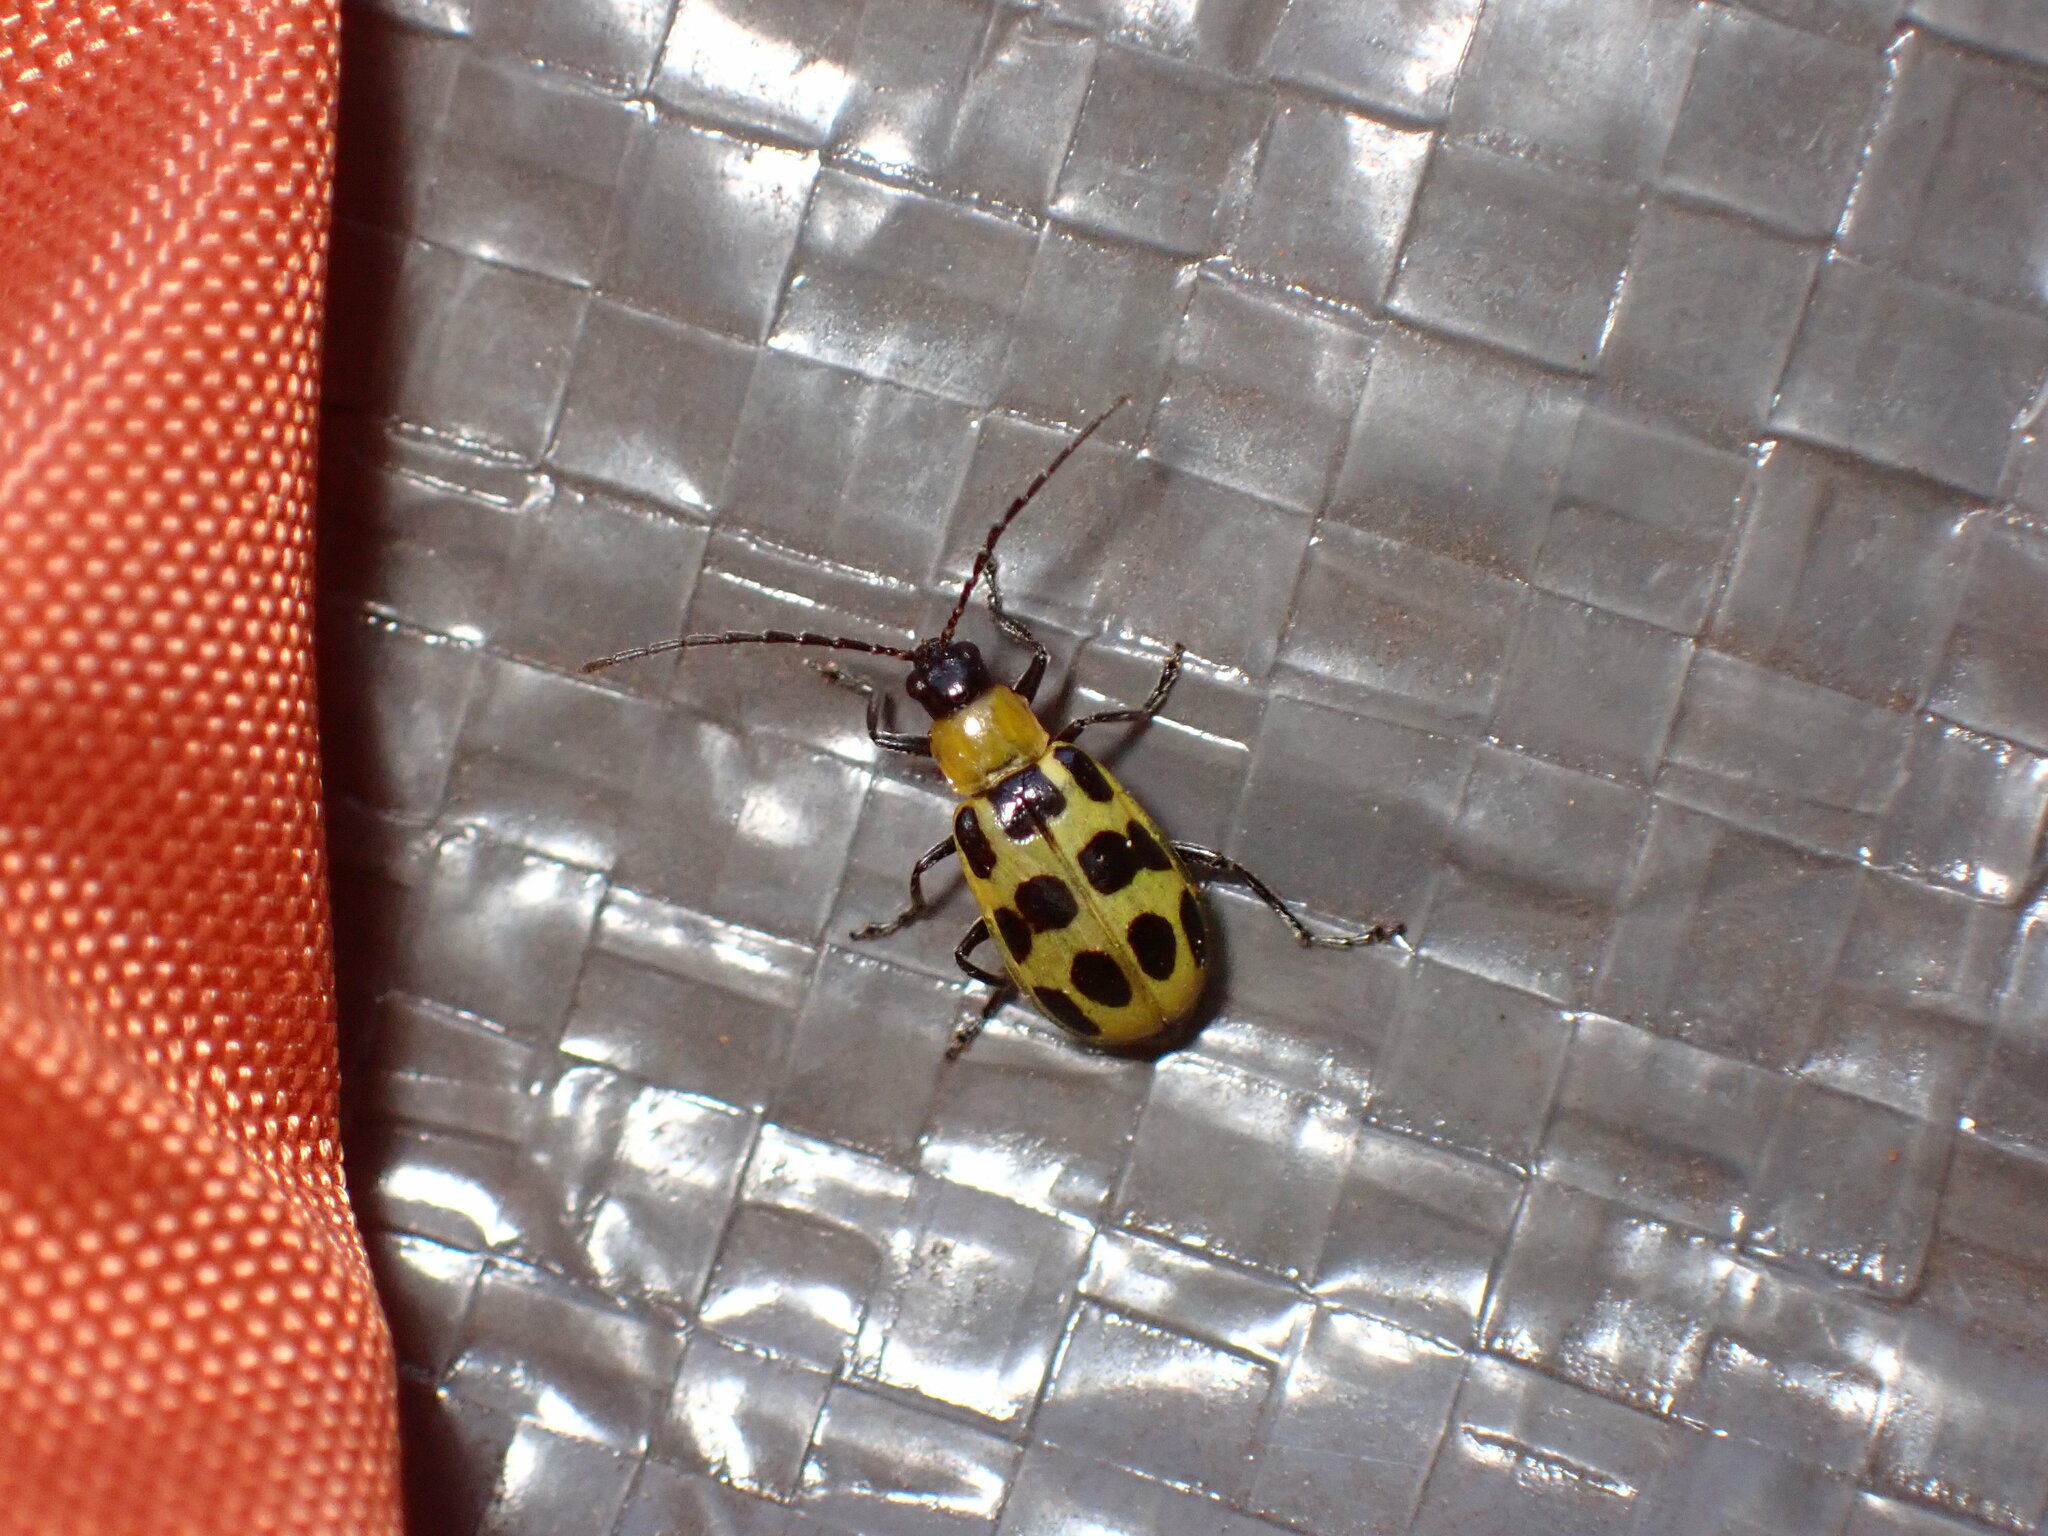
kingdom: Animalia
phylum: Arthropoda
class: Insecta
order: Coleoptera
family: Chrysomelidae
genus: Diabrotica
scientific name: Diabrotica undecimpunctata
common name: Spotted cucumber beetle
